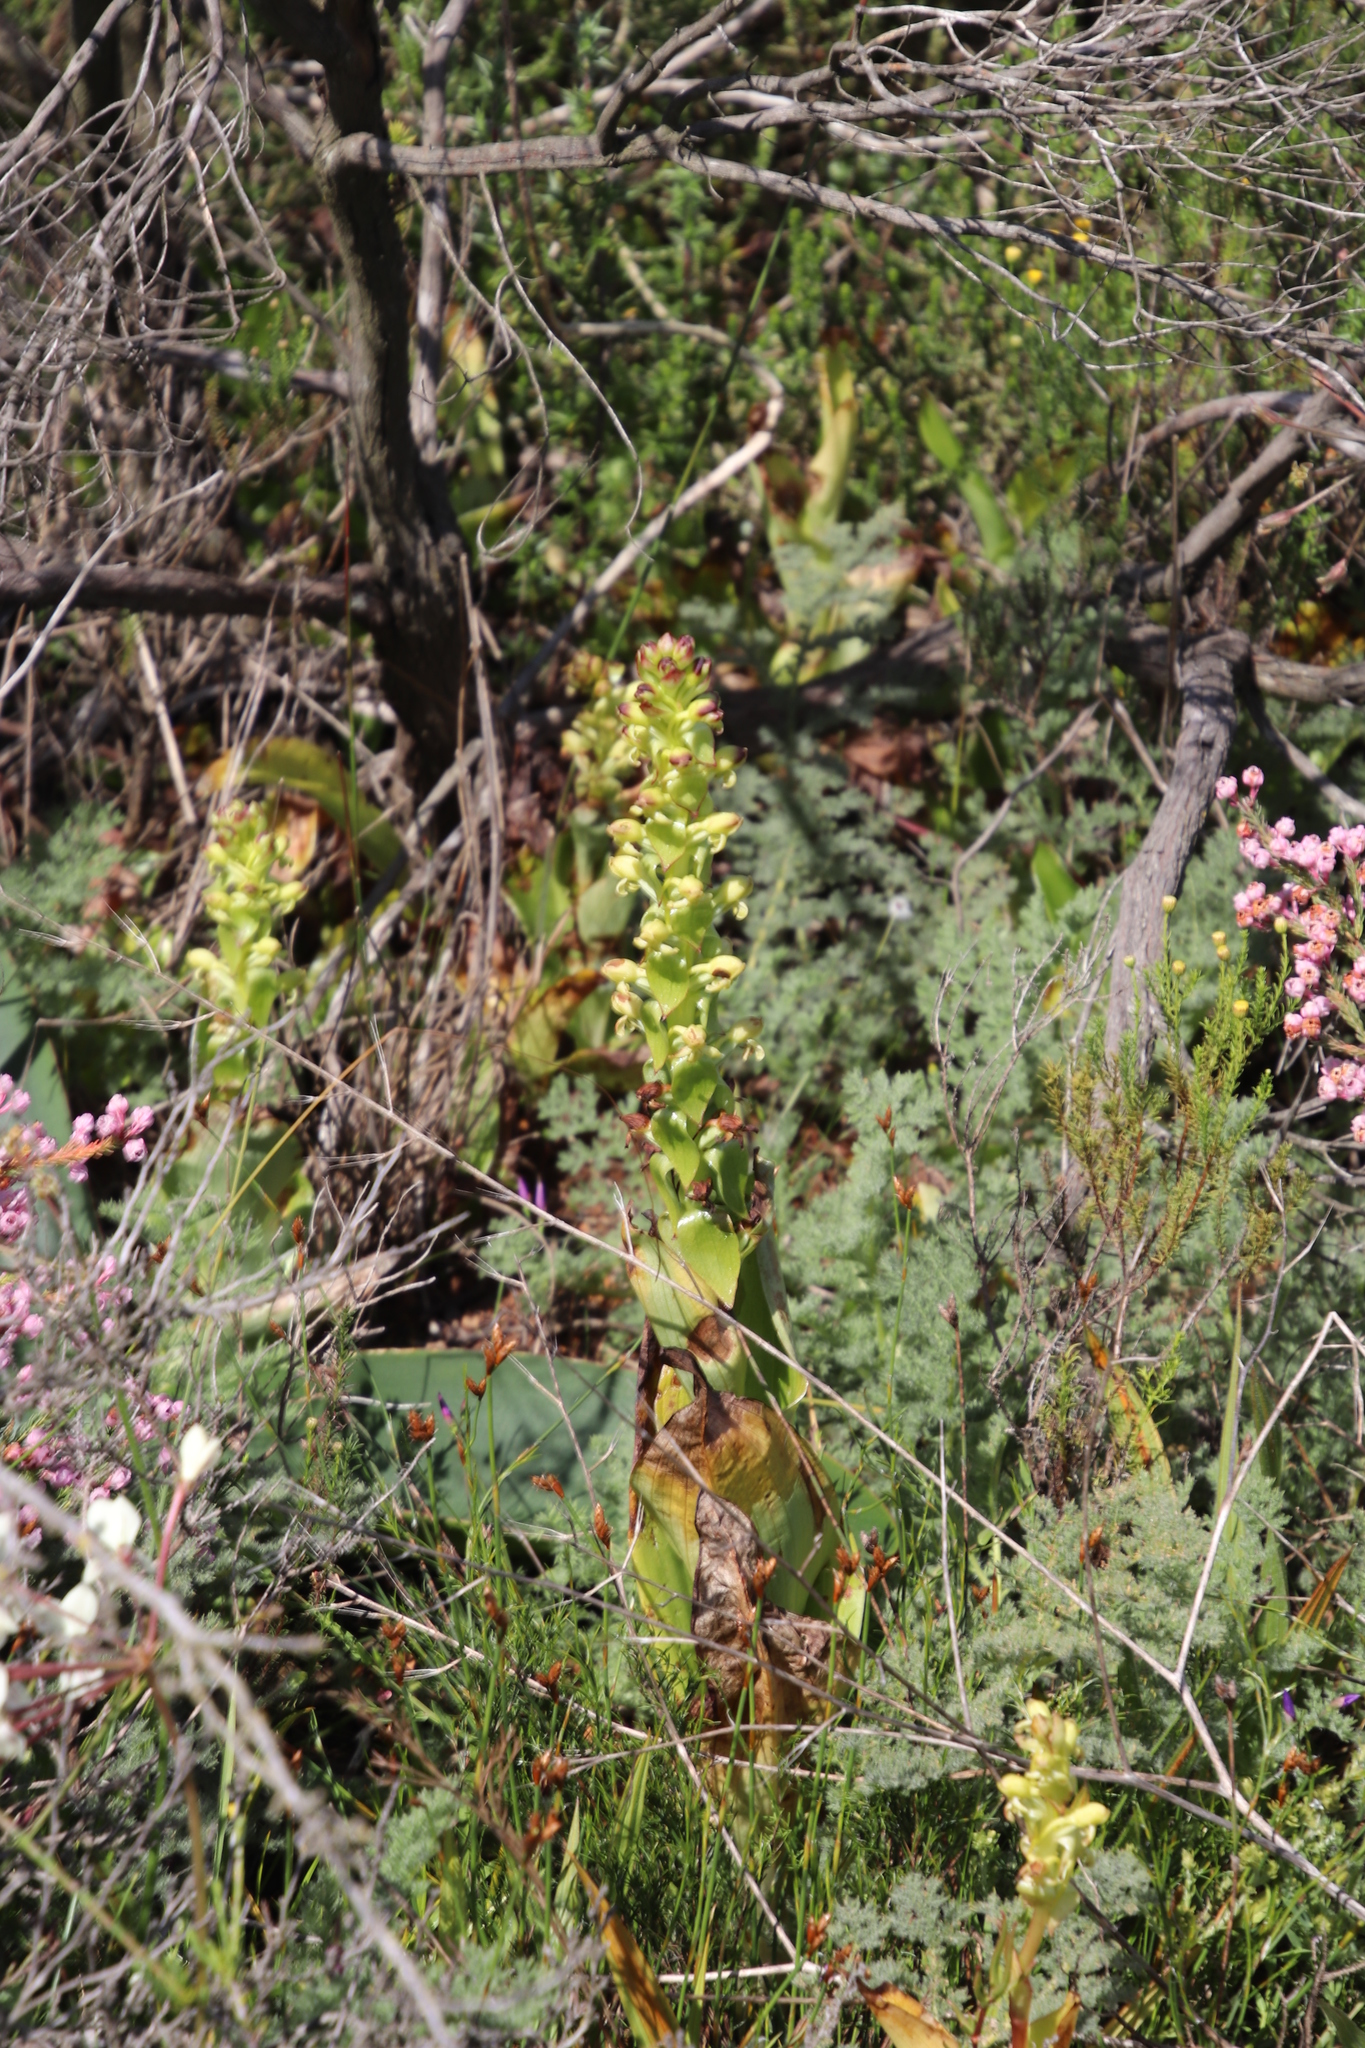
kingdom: Plantae
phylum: Tracheophyta
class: Liliopsida
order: Asparagales
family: Orchidaceae
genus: Satyrium
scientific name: Satyrium odorum
